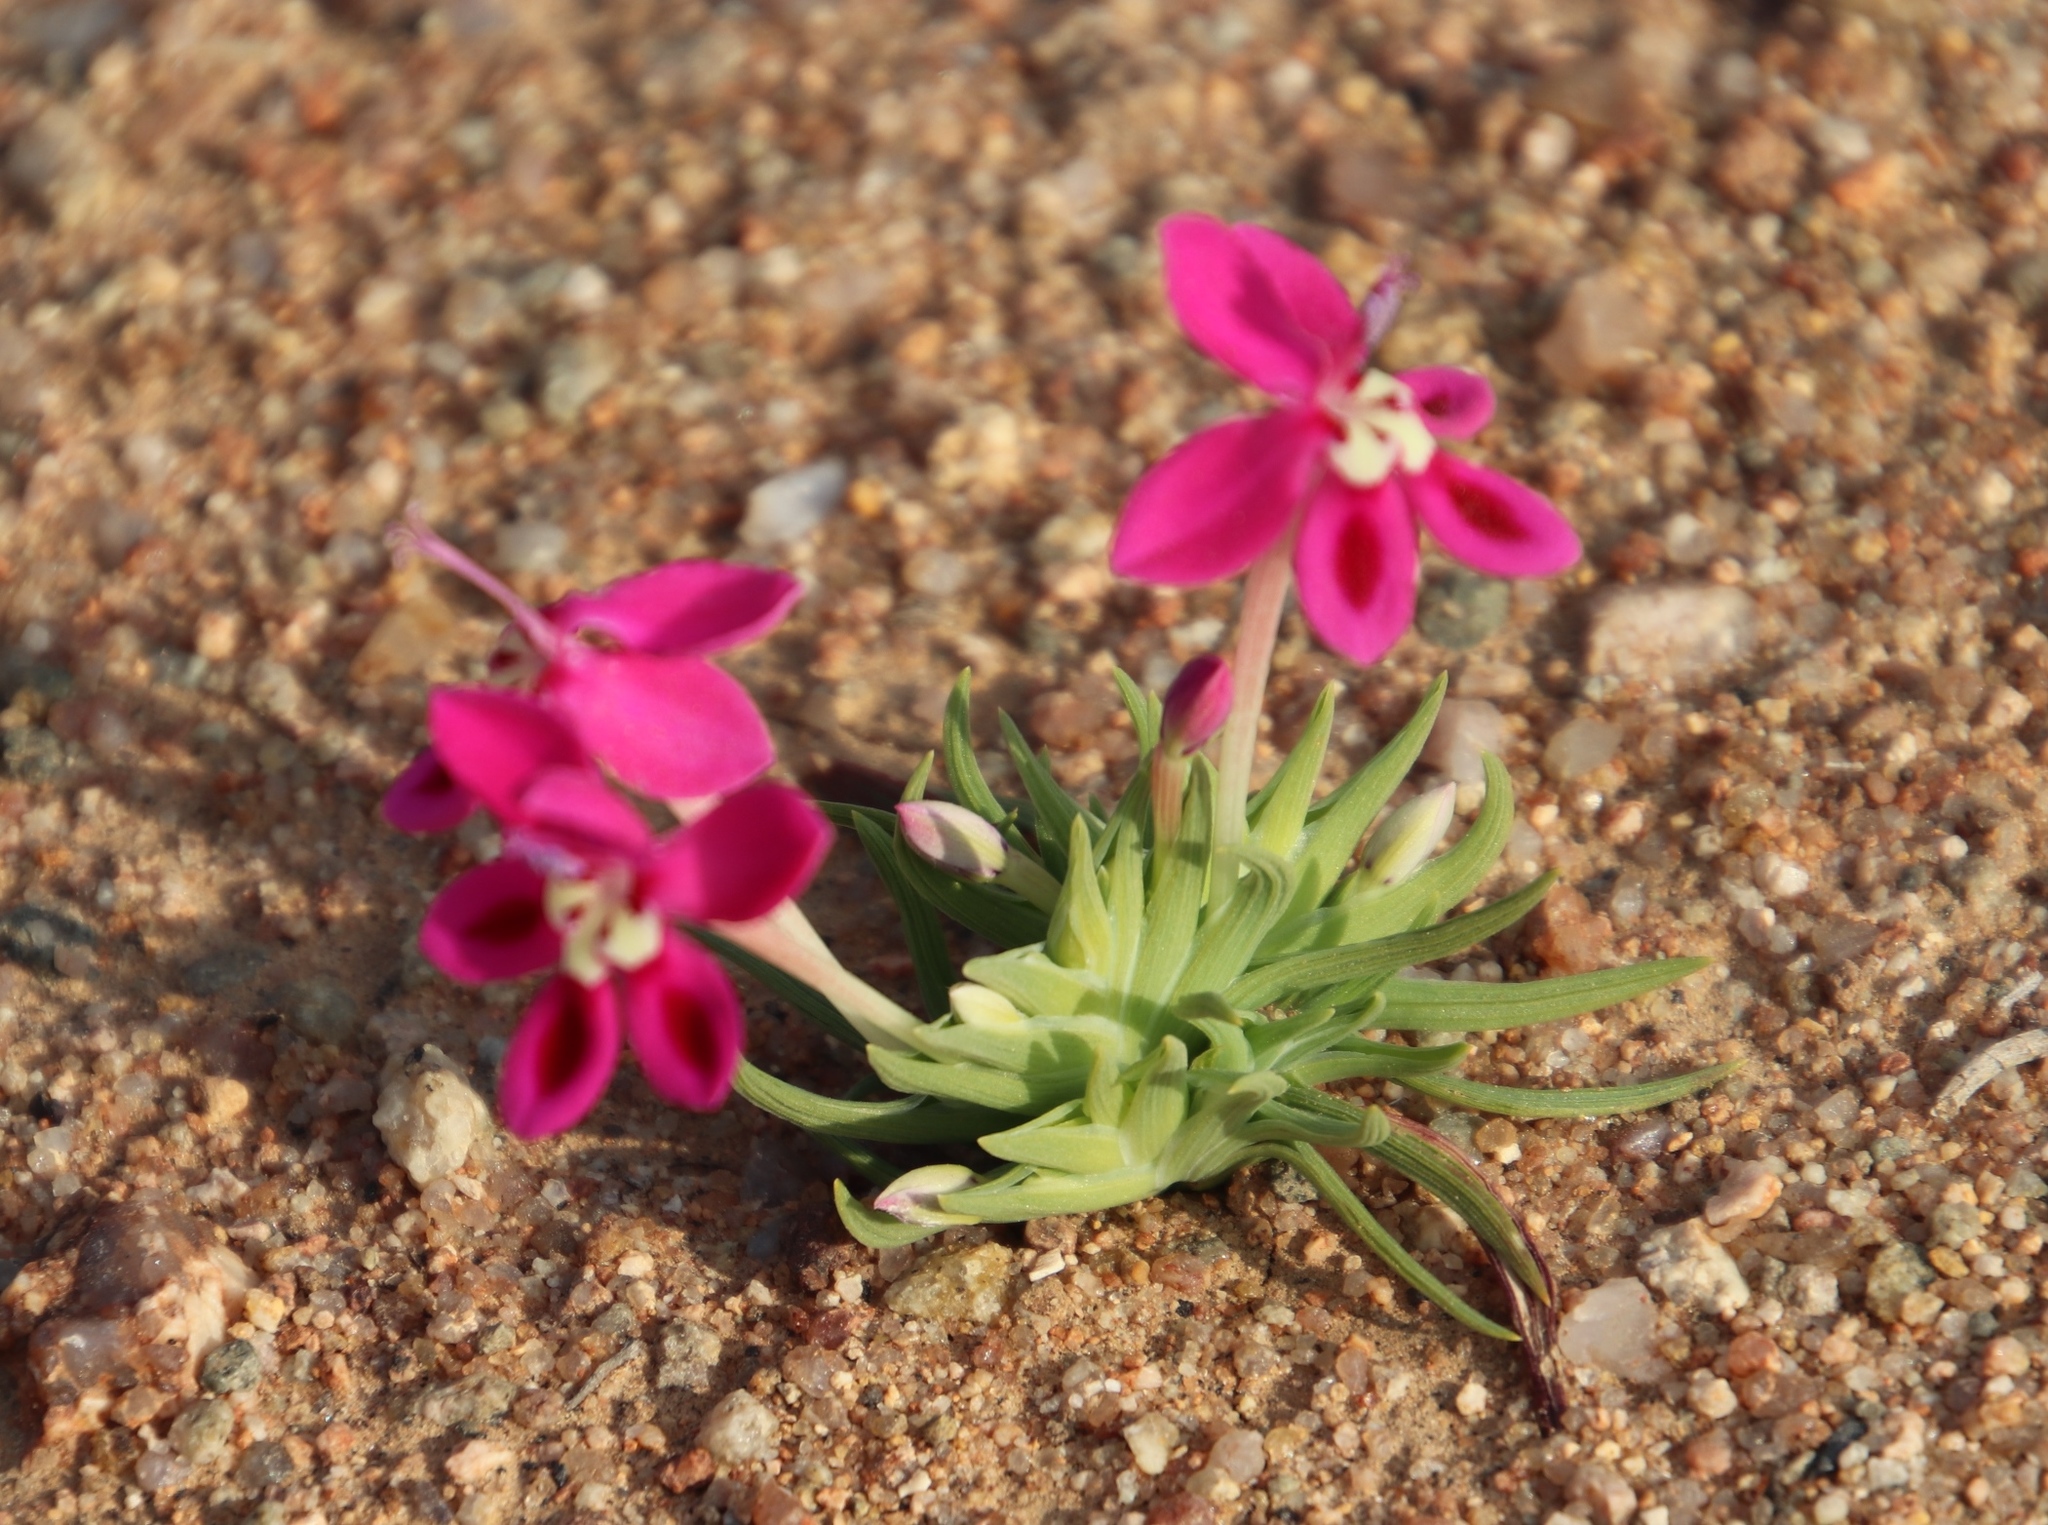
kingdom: Plantae
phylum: Tracheophyta
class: Liliopsida
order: Asparagales
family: Iridaceae
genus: Lapeirousia
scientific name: Lapeirousia silenoides
